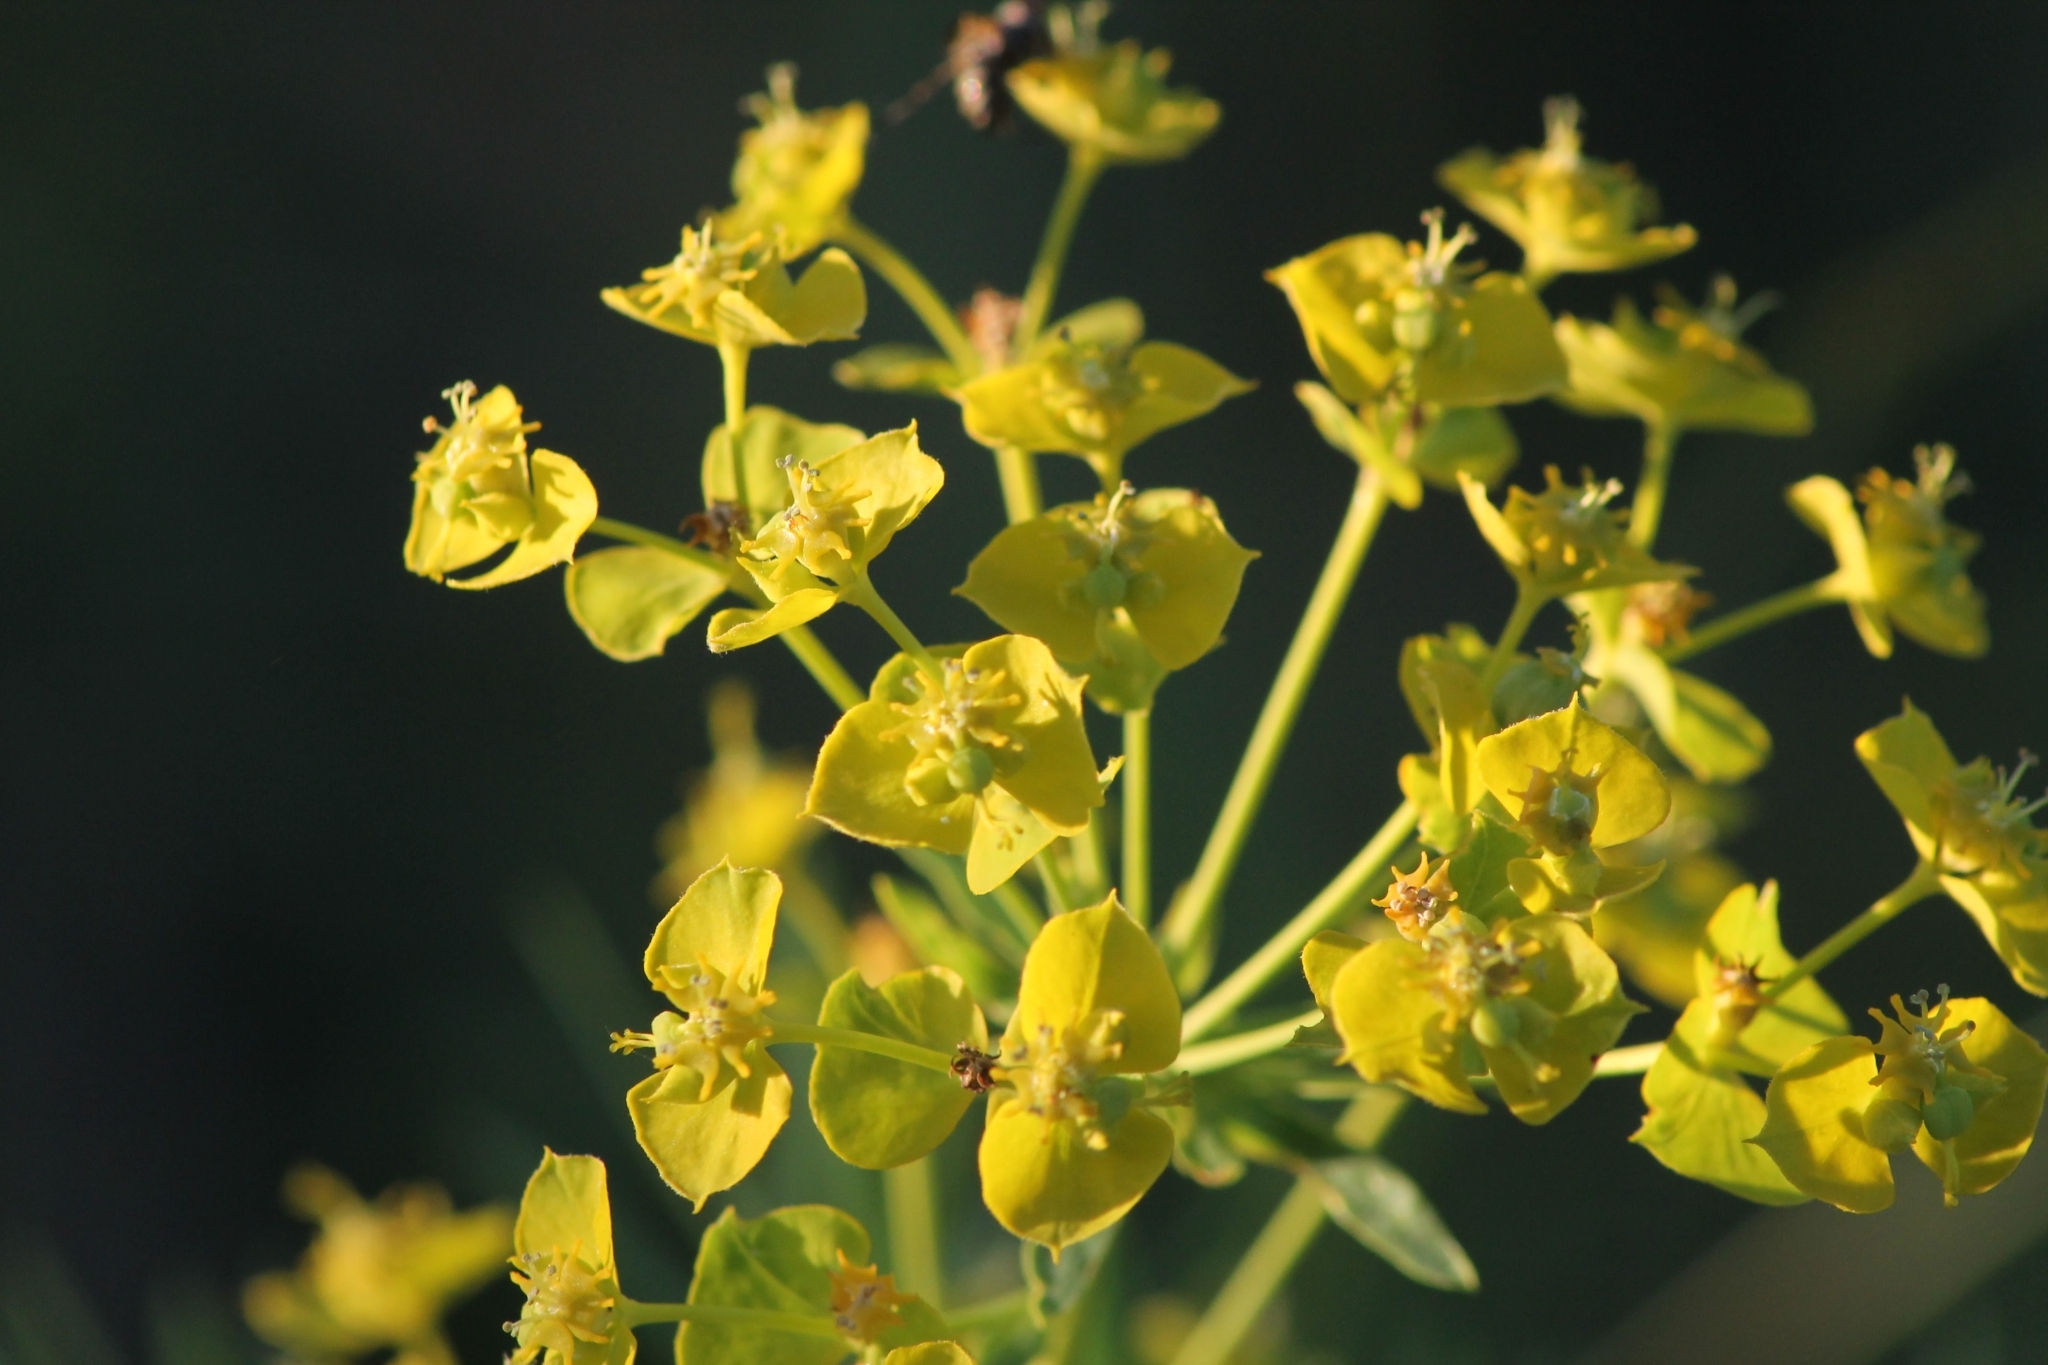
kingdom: Plantae
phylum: Tracheophyta
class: Magnoliopsida
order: Malpighiales
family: Euphorbiaceae
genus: Euphorbia
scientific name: Euphorbia virgata
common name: Leafy spurge
